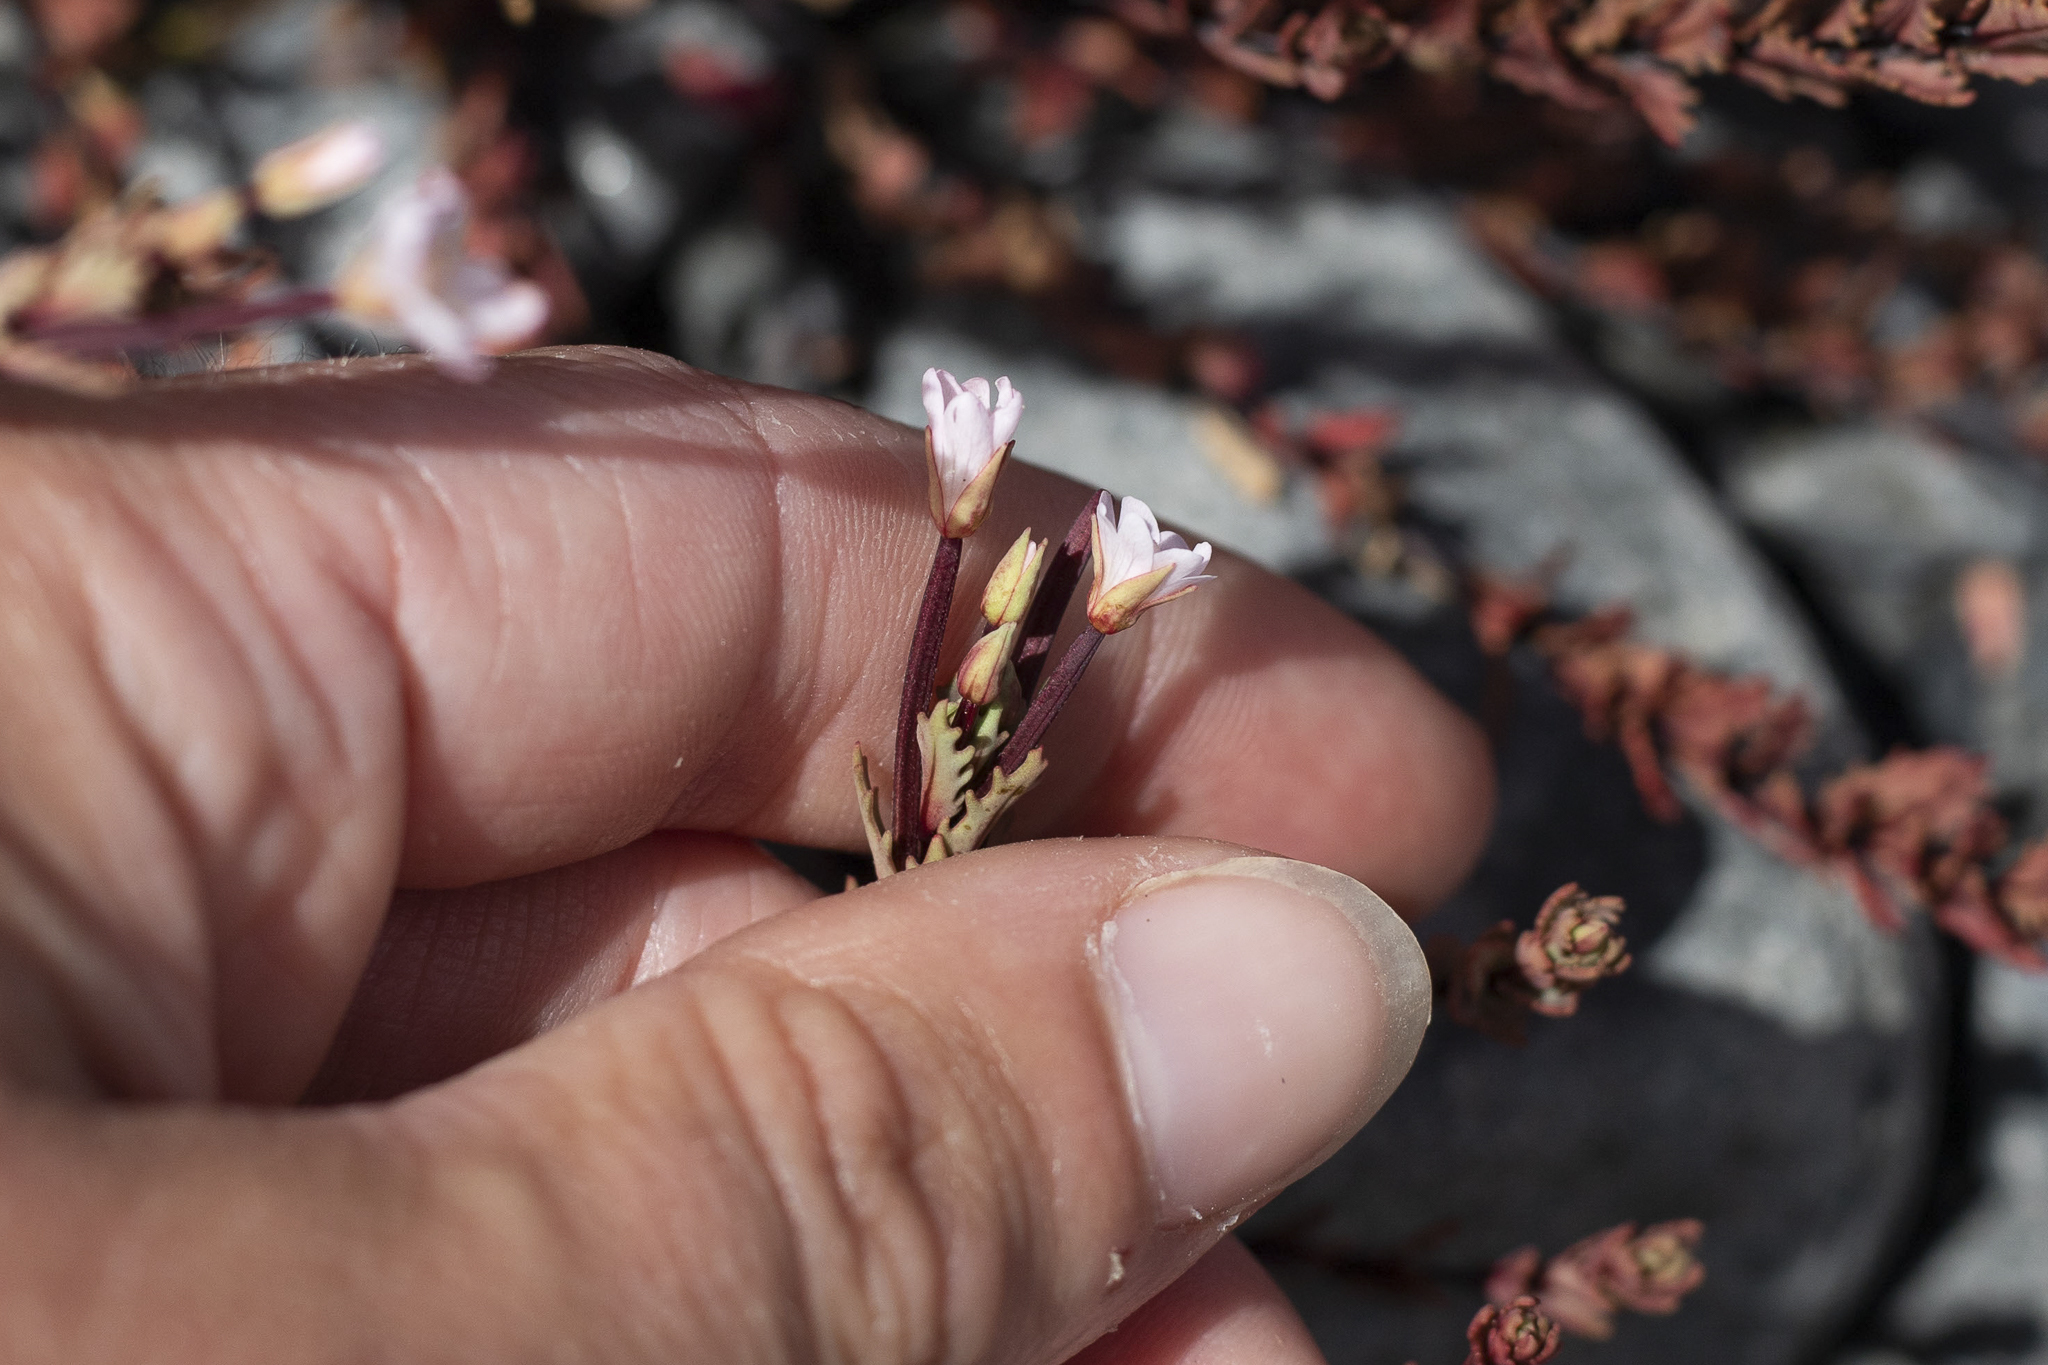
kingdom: Plantae
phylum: Tracheophyta
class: Magnoliopsida
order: Myrtales
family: Onagraceae
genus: Epilobium
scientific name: Epilobium melanocaulon
